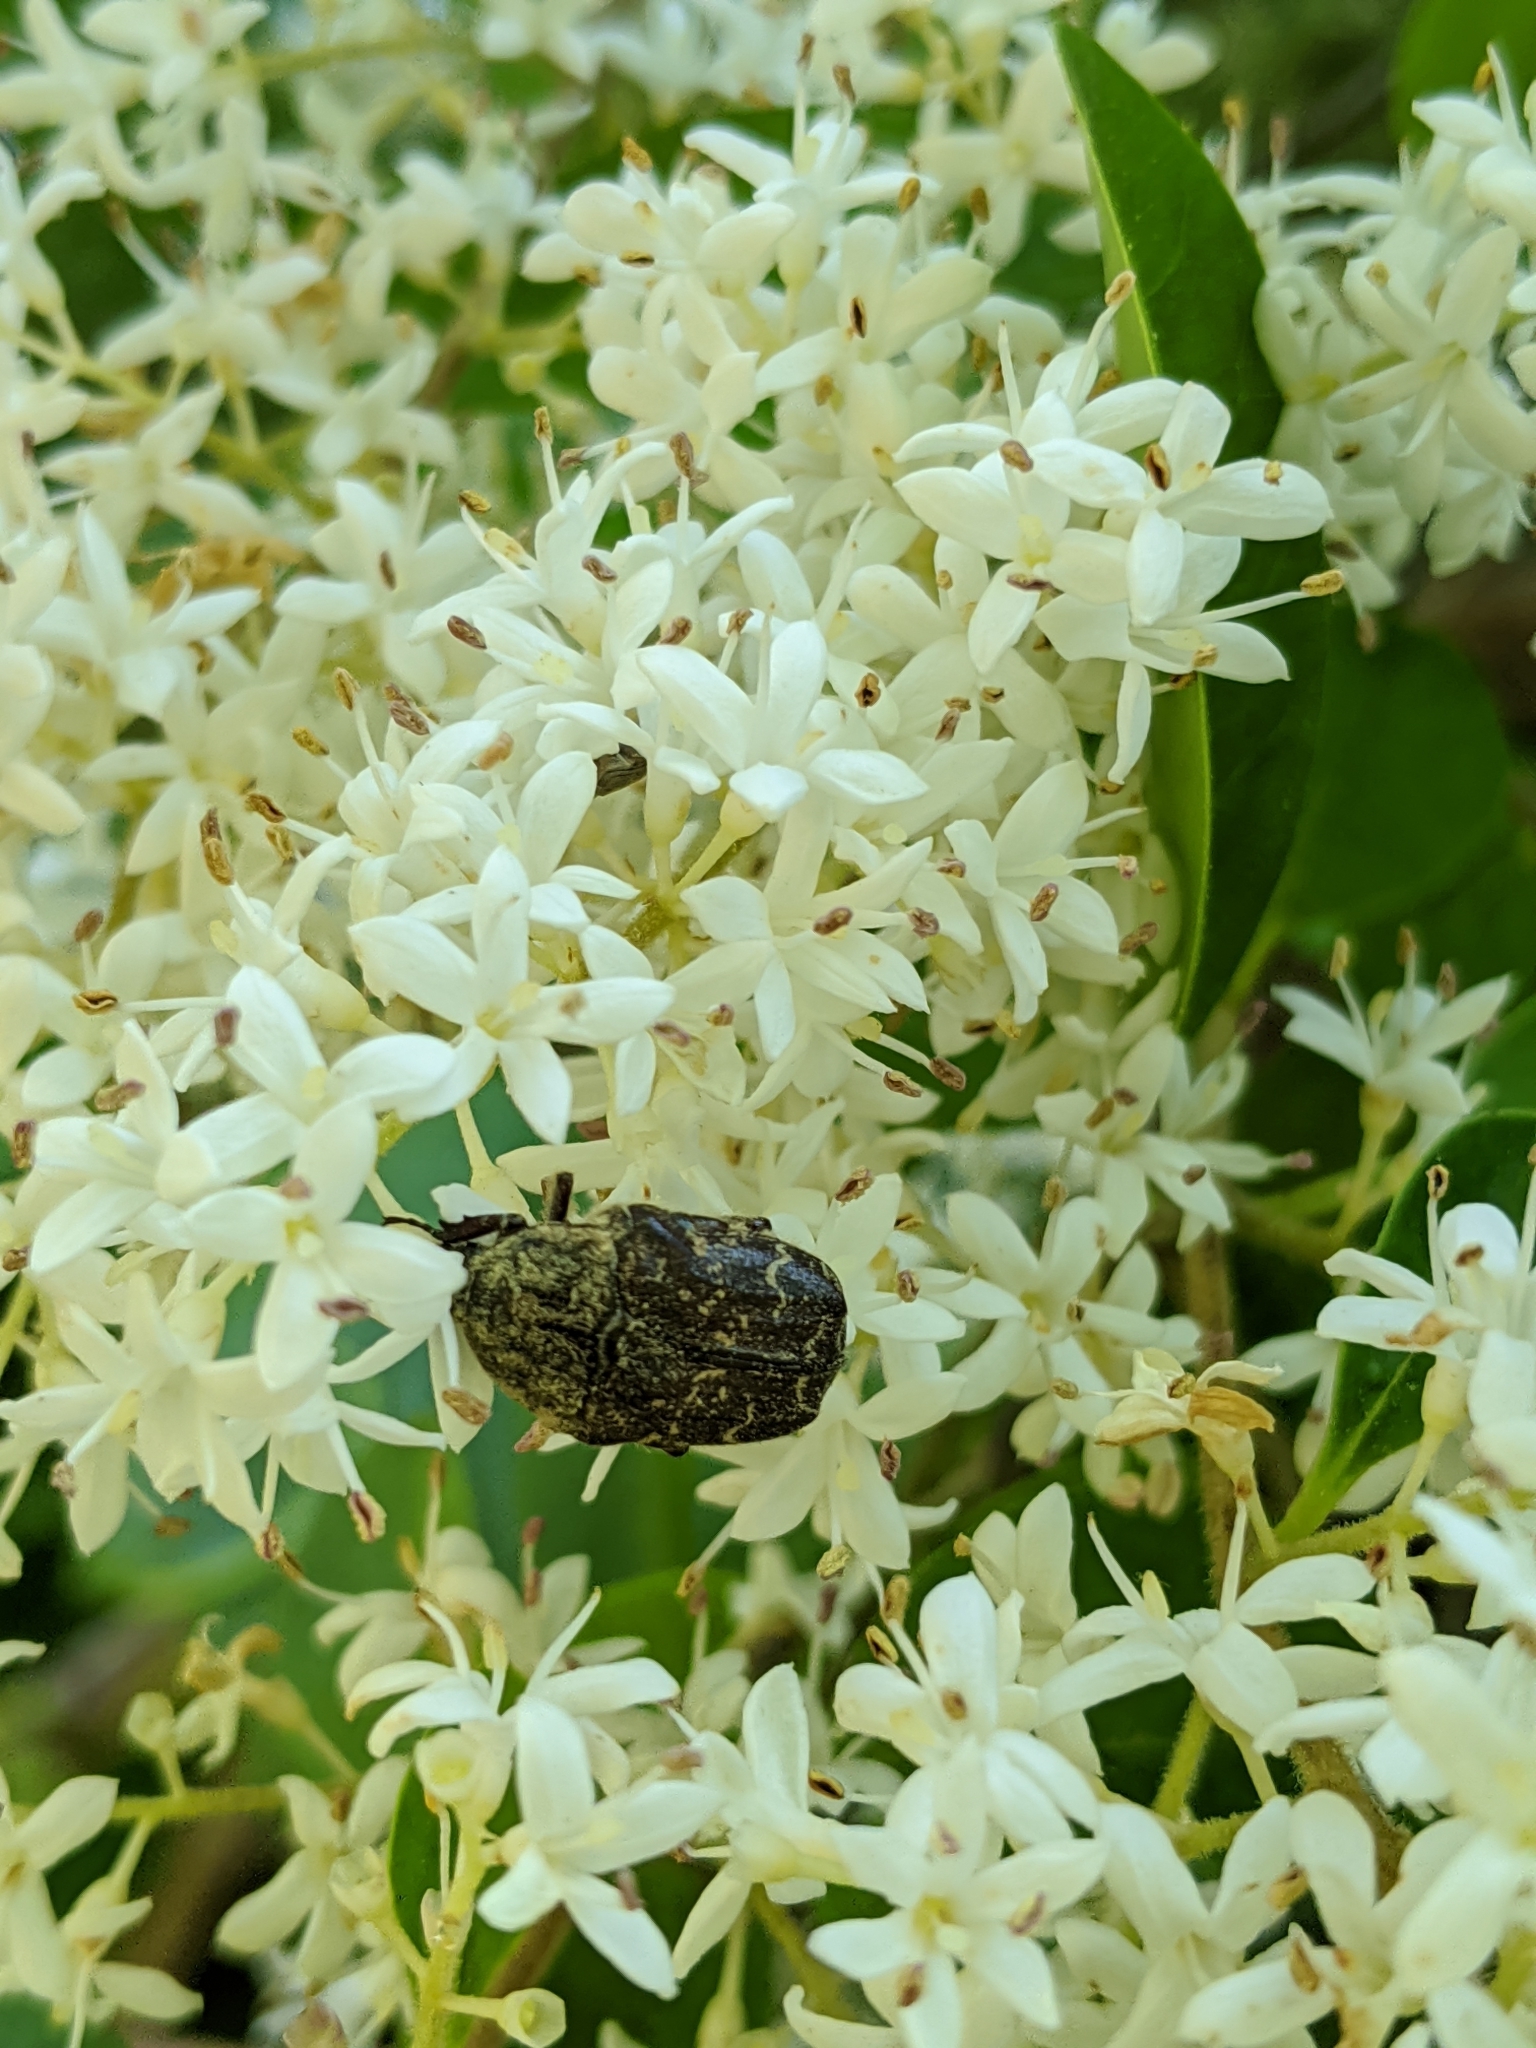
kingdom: Animalia
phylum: Arthropoda
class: Insecta
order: Coleoptera
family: Scarabaeidae
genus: Euphoria
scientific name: Euphoria sepulcralis
